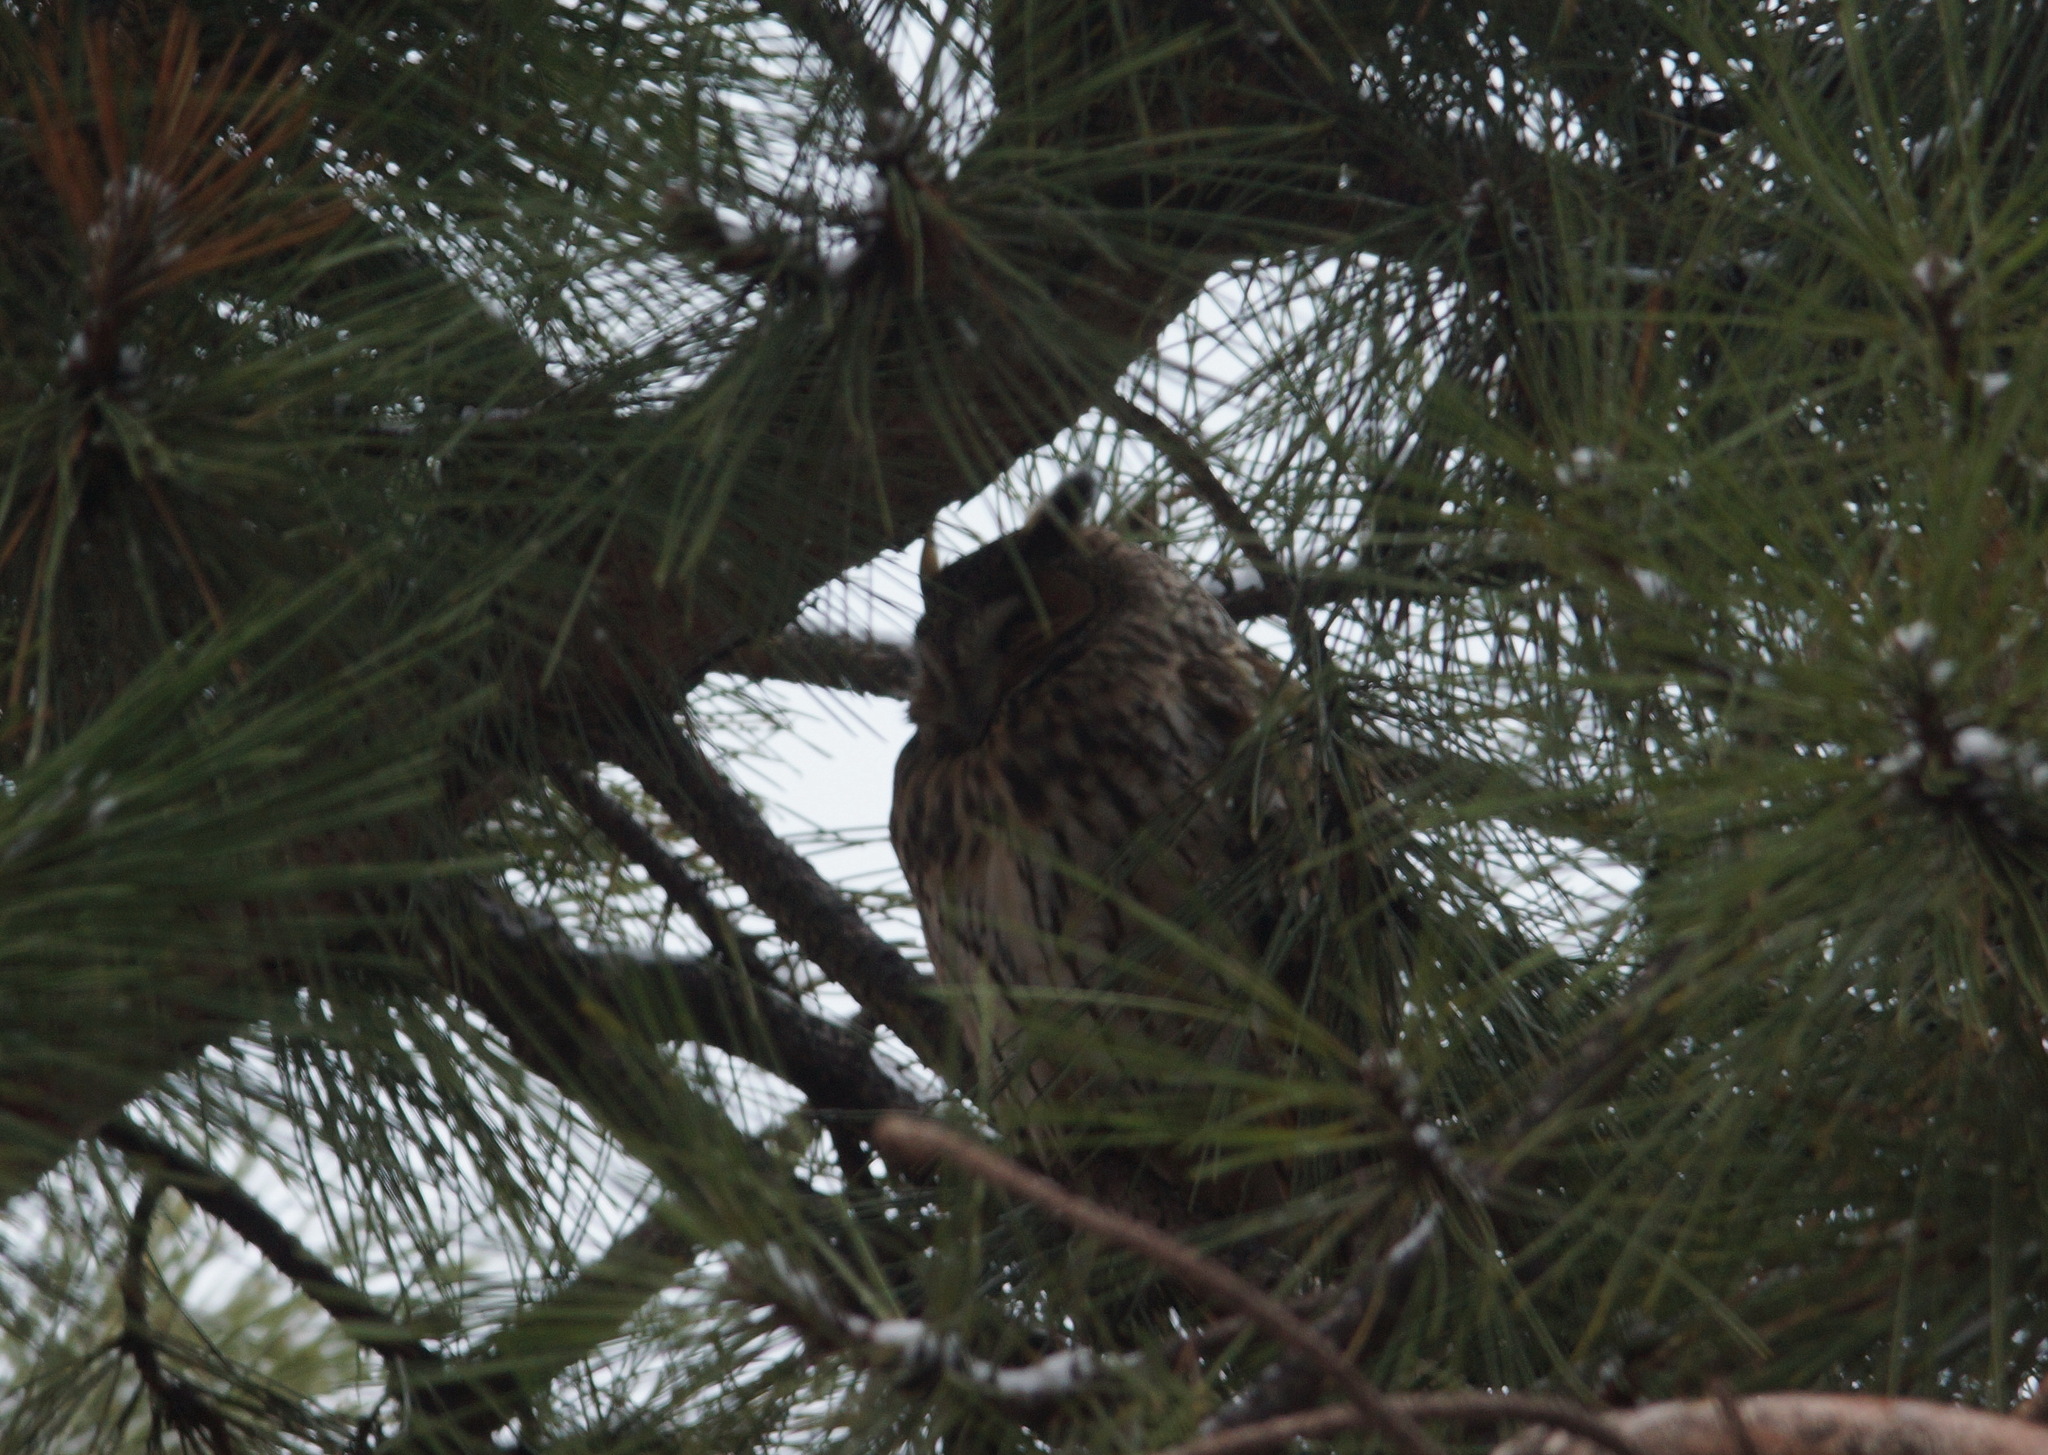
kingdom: Animalia
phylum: Chordata
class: Aves
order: Strigiformes
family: Strigidae
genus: Asio
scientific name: Asio otus
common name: Long-eared owl
